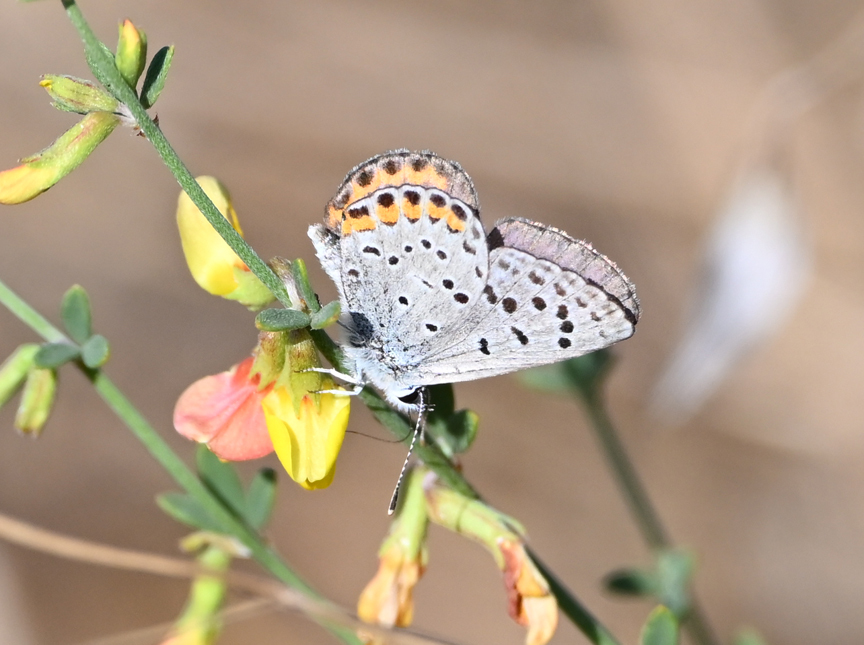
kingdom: Animalia
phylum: Arthropoda
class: Insecta
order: Lepidoptera
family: Lycaenidae
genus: Icaricia
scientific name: Icaricia acmon
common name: Acmon blue
